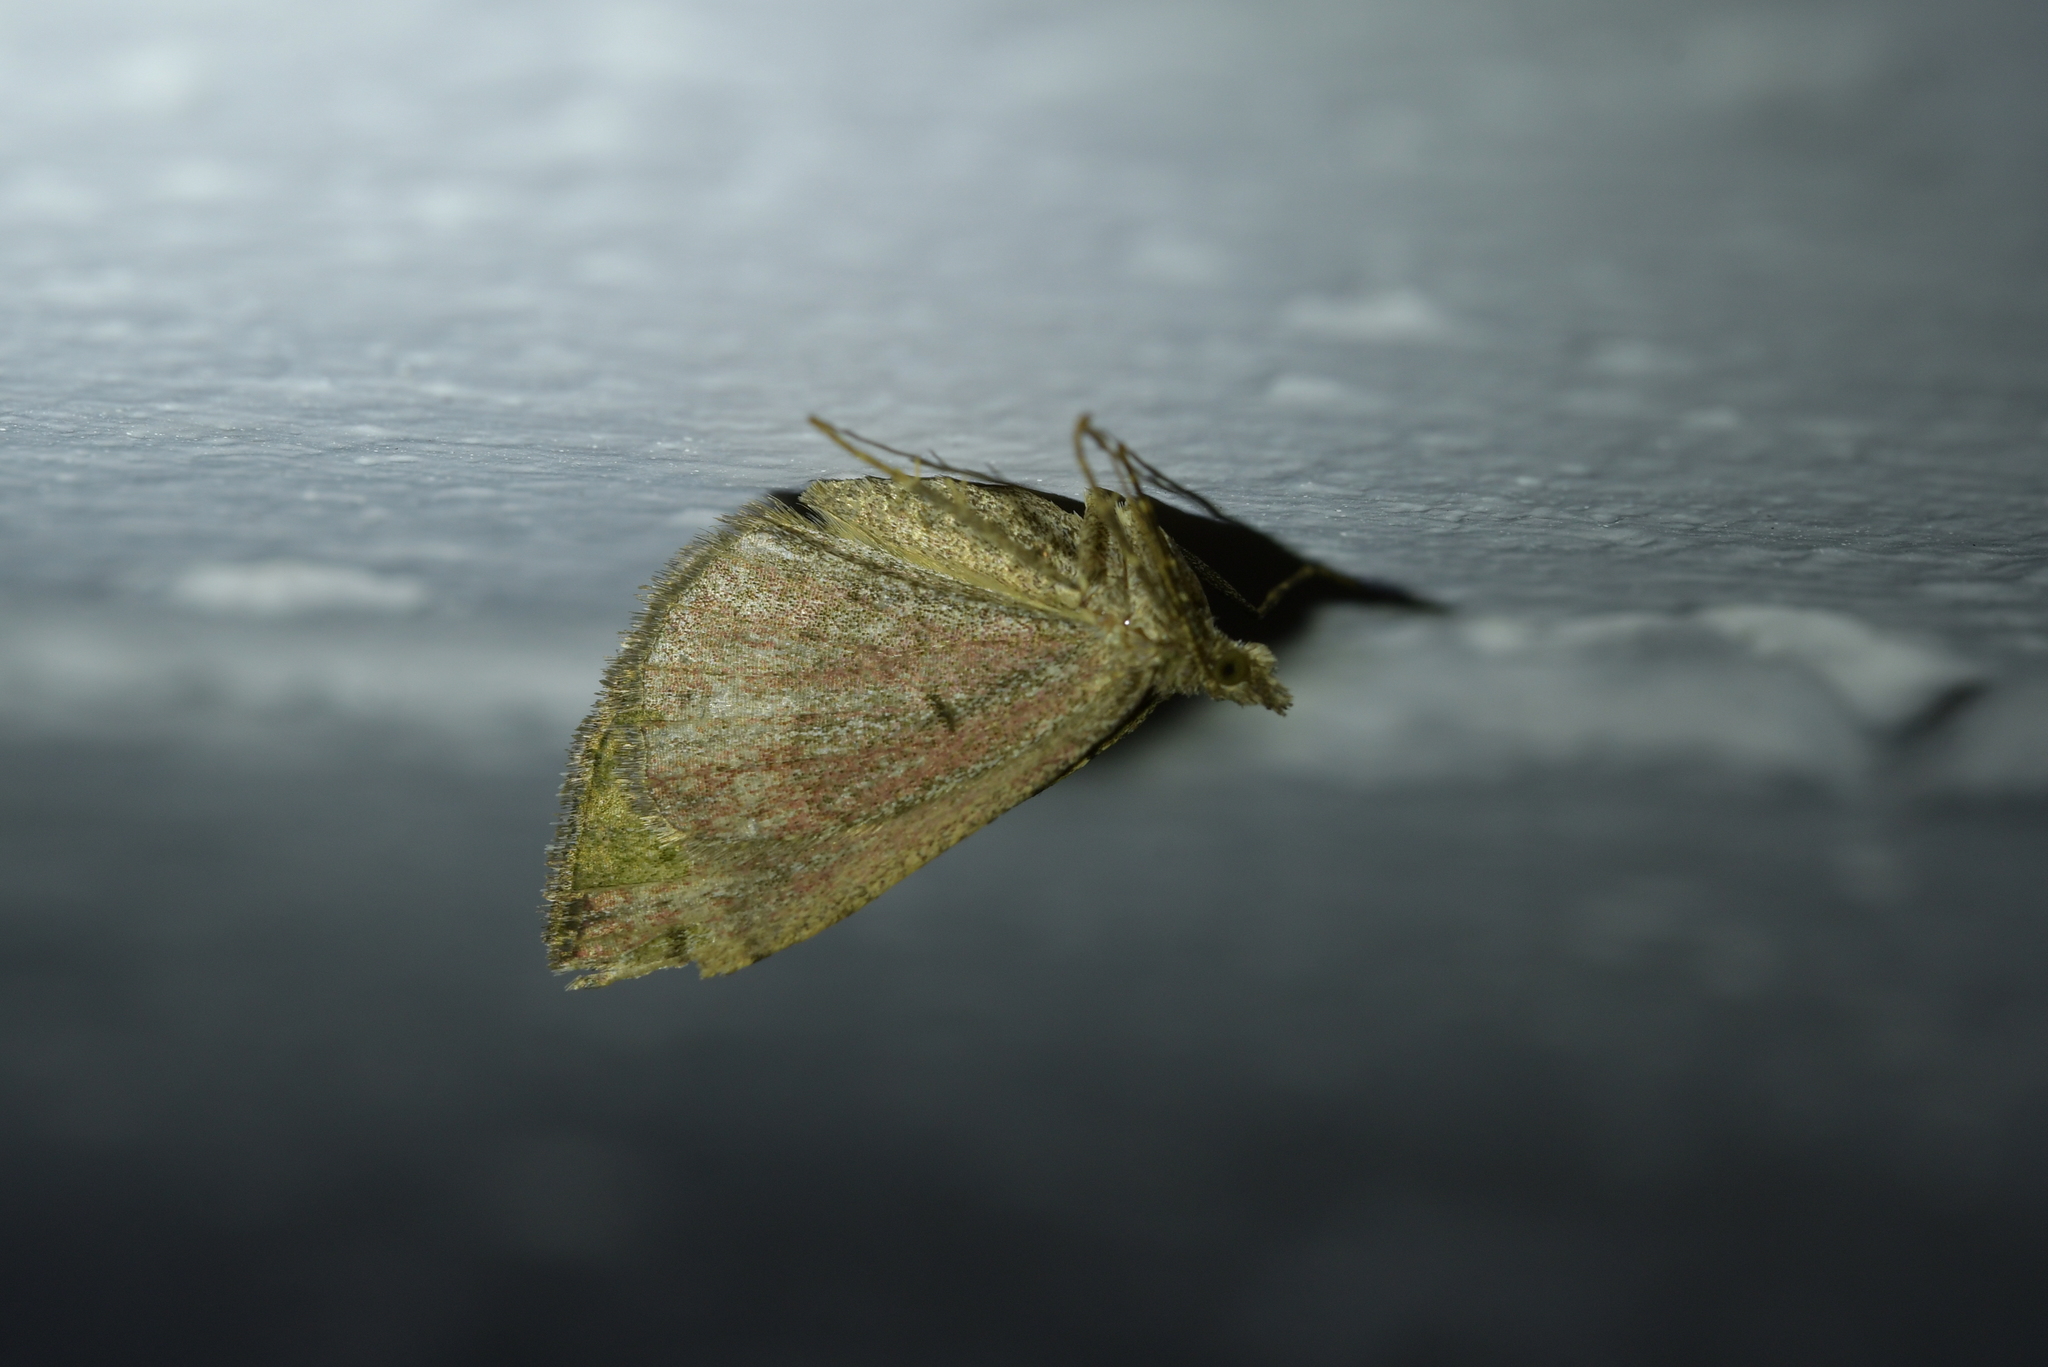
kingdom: Animalia
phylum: Arthropoda
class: Insecta
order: Lepidoptera
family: Geometridae
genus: Epyaxa
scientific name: Epyaxa rosearia
